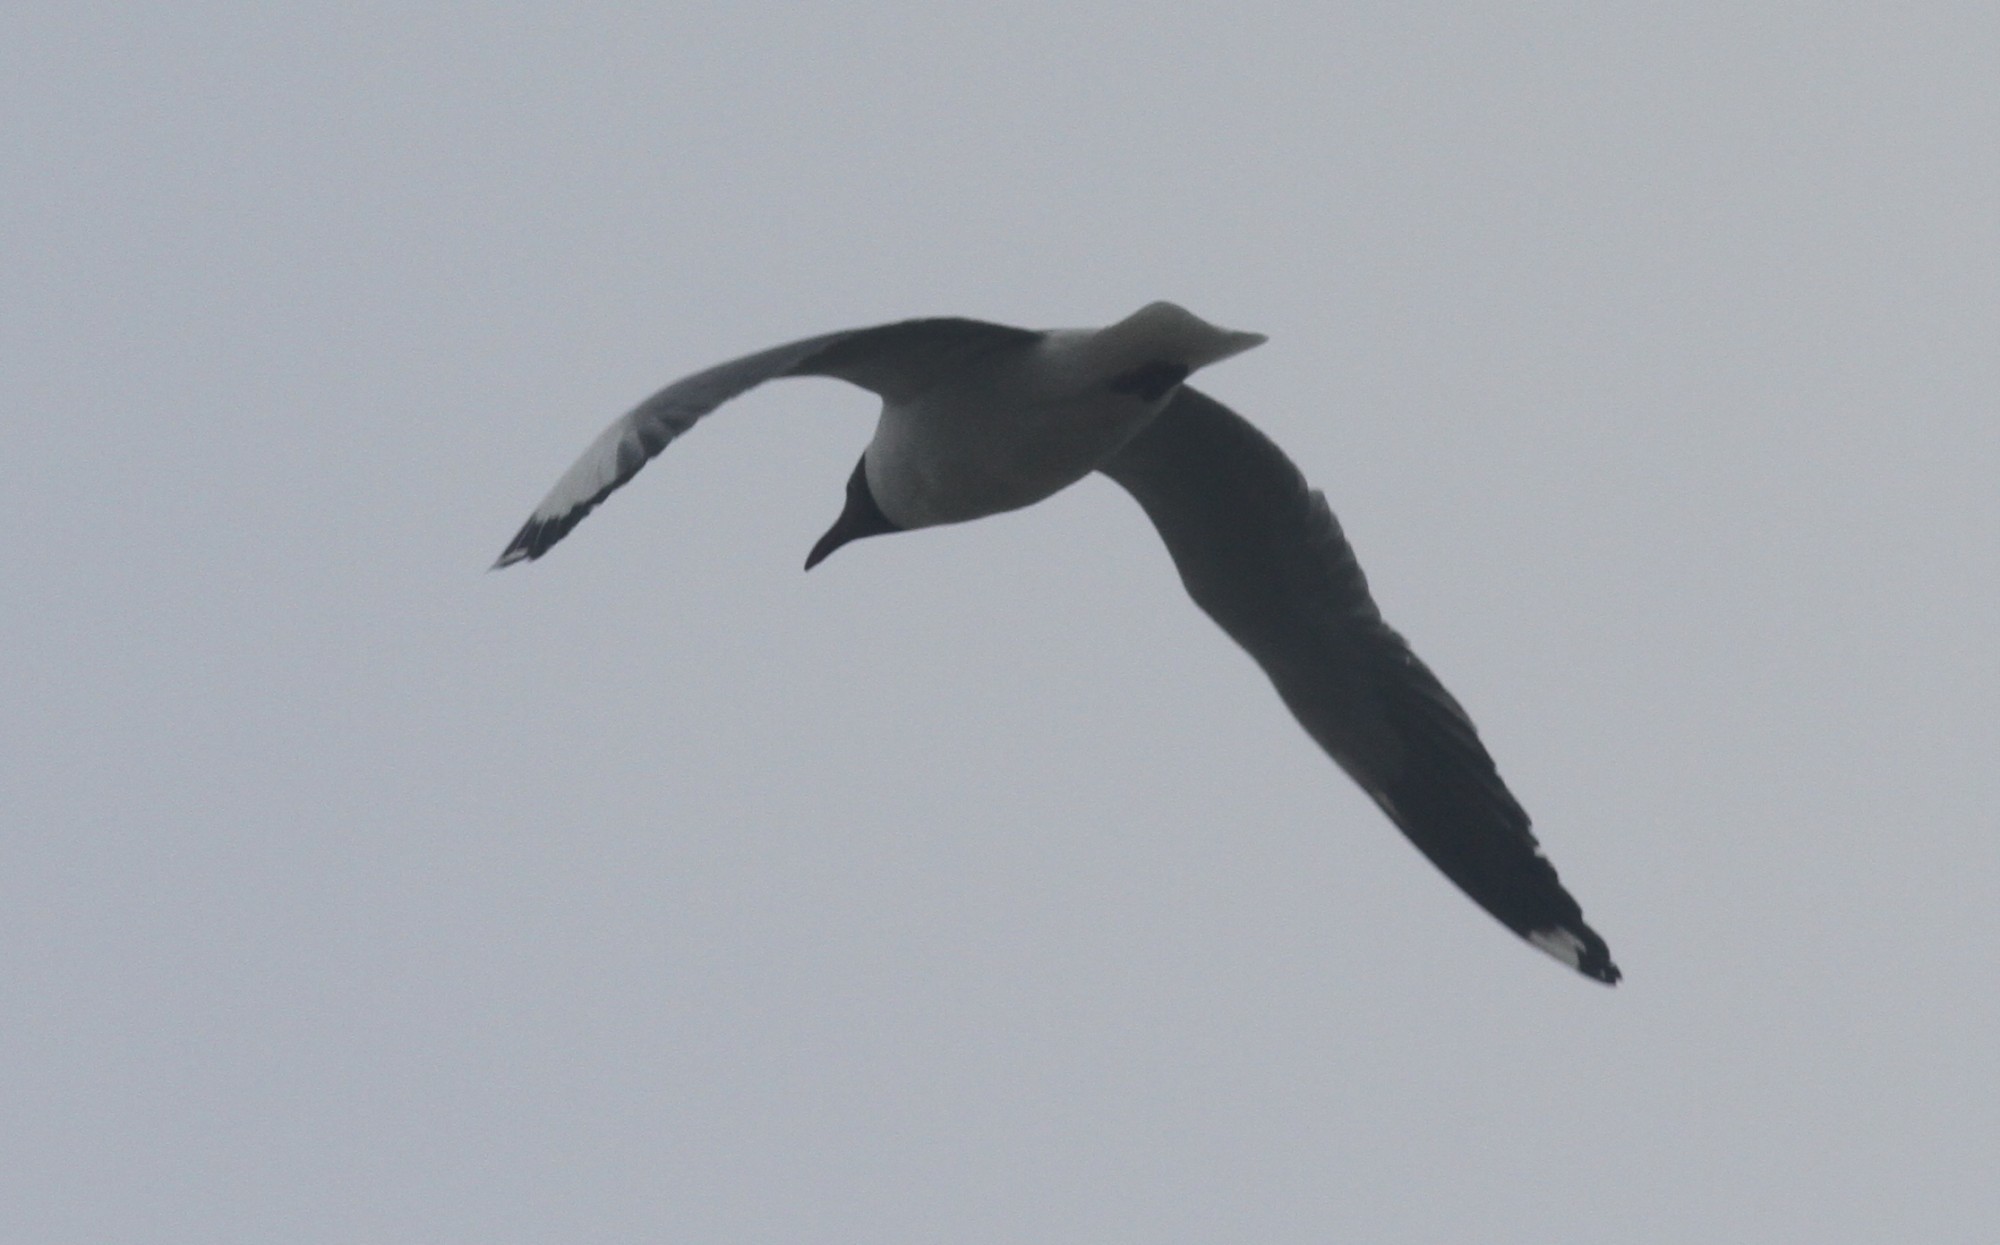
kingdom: Animalia
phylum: Chordata
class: Aves
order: Charadriiformes
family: Laridae
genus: Chroicocephalus
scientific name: Chroicocephalus brunnicephalus
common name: Brown-headed gull
